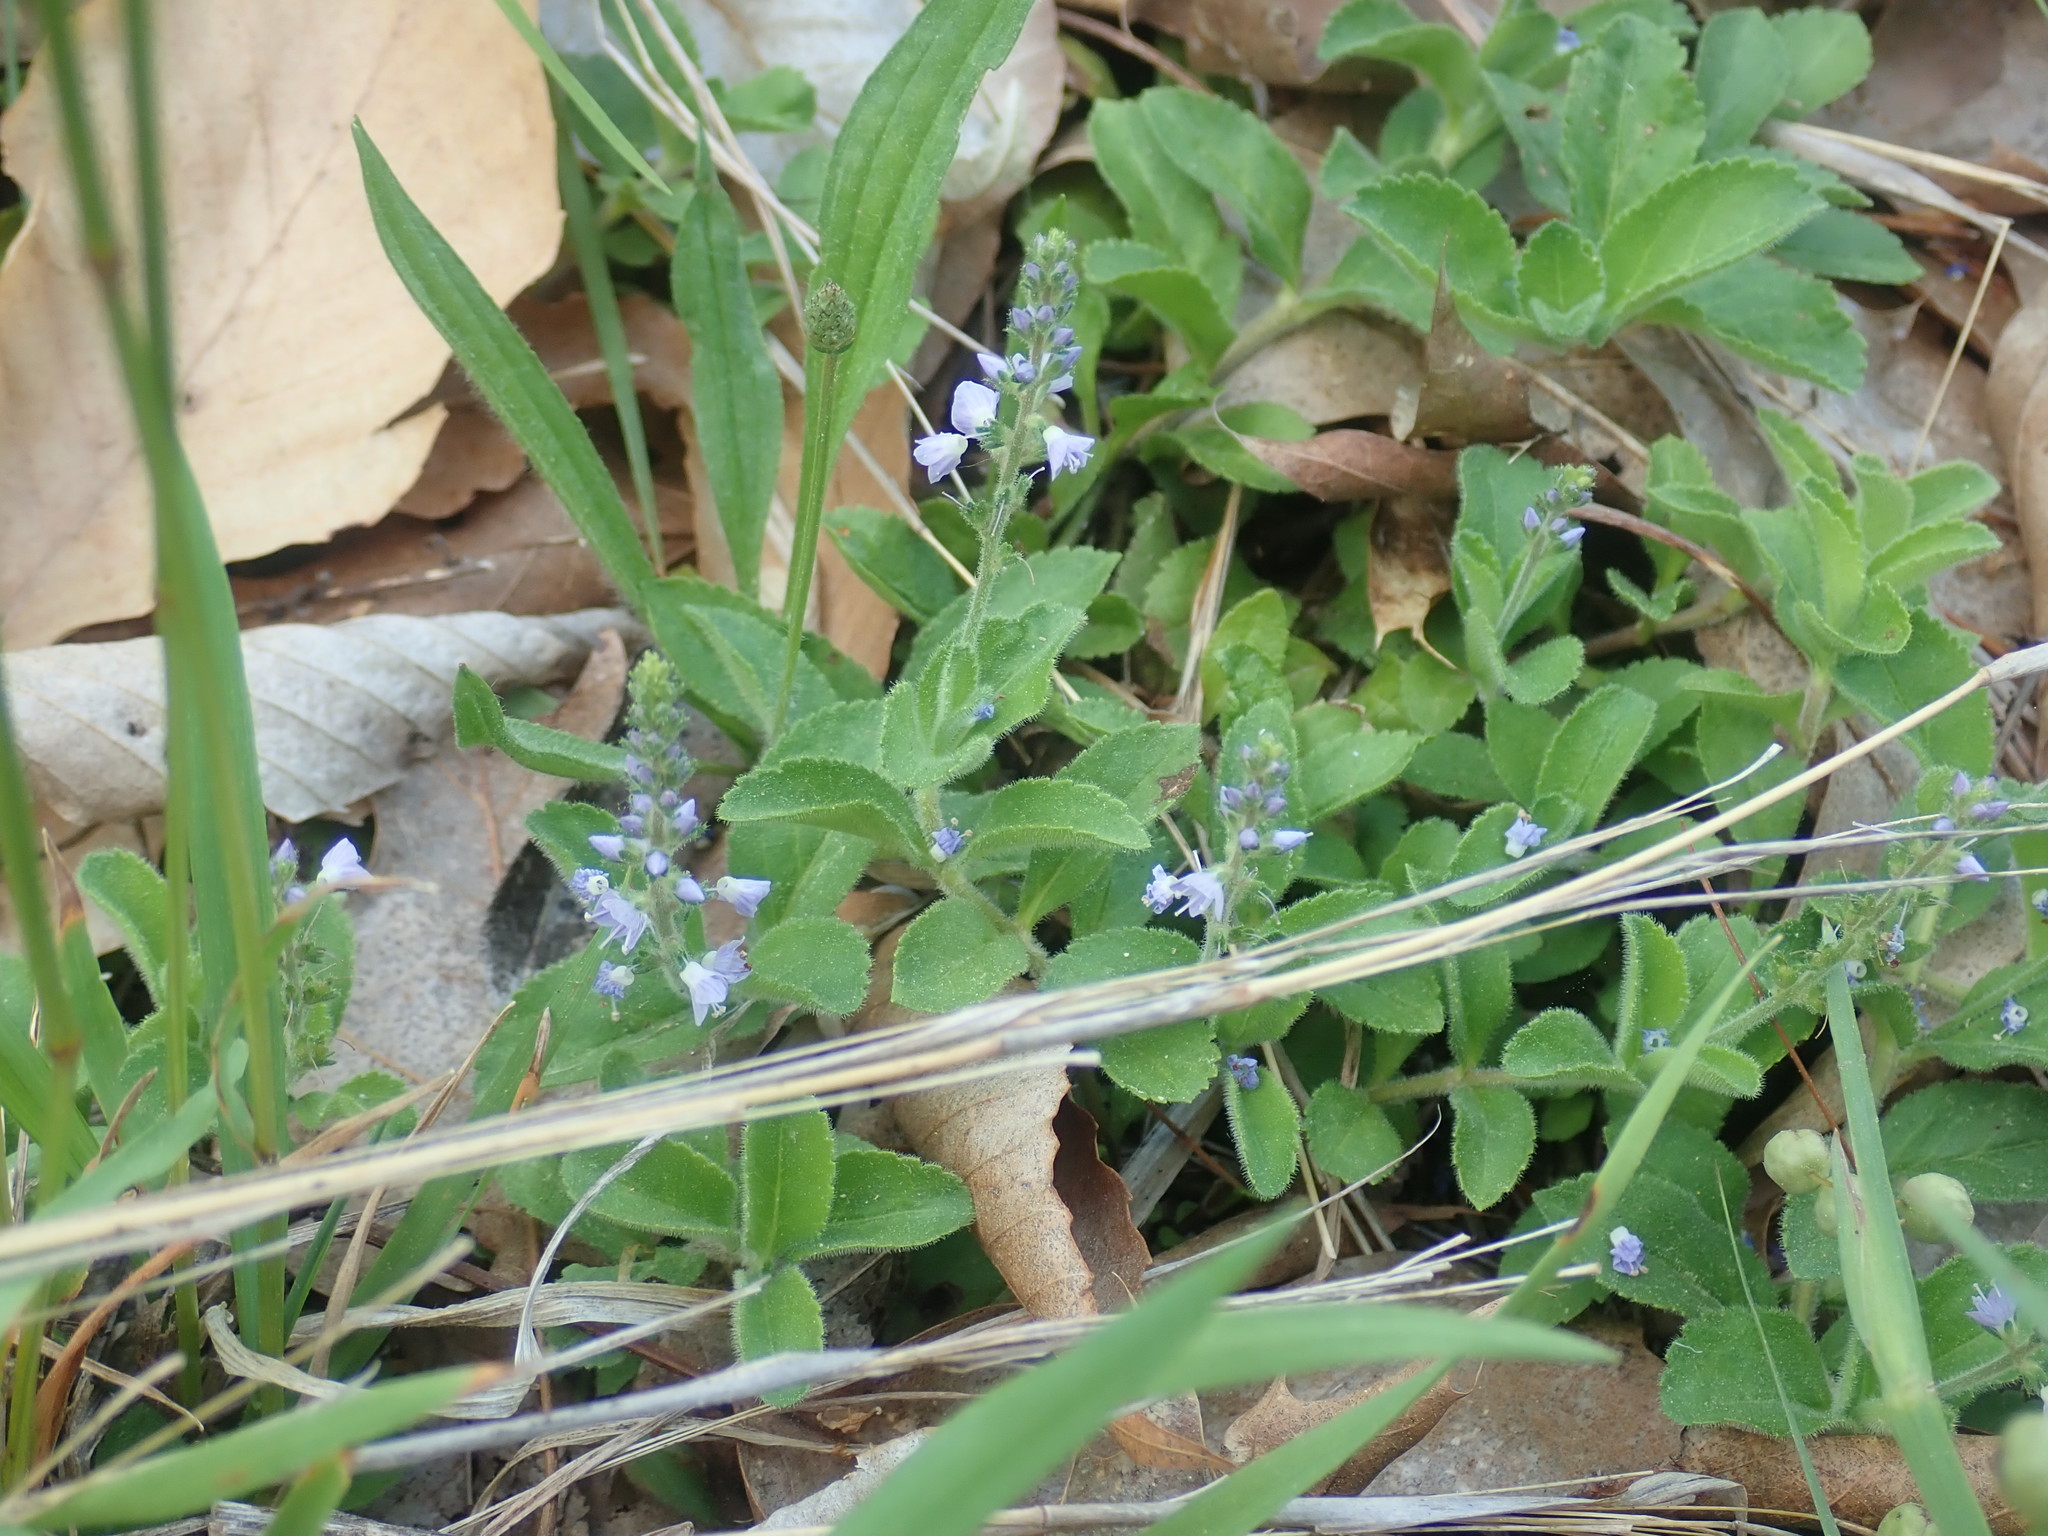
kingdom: Plantae
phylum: Tracheophyta
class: Magnoliopsida
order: Lamiales
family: Plantaginaceae
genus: Veronica
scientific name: Veronica officinalis
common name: Common speedwell
